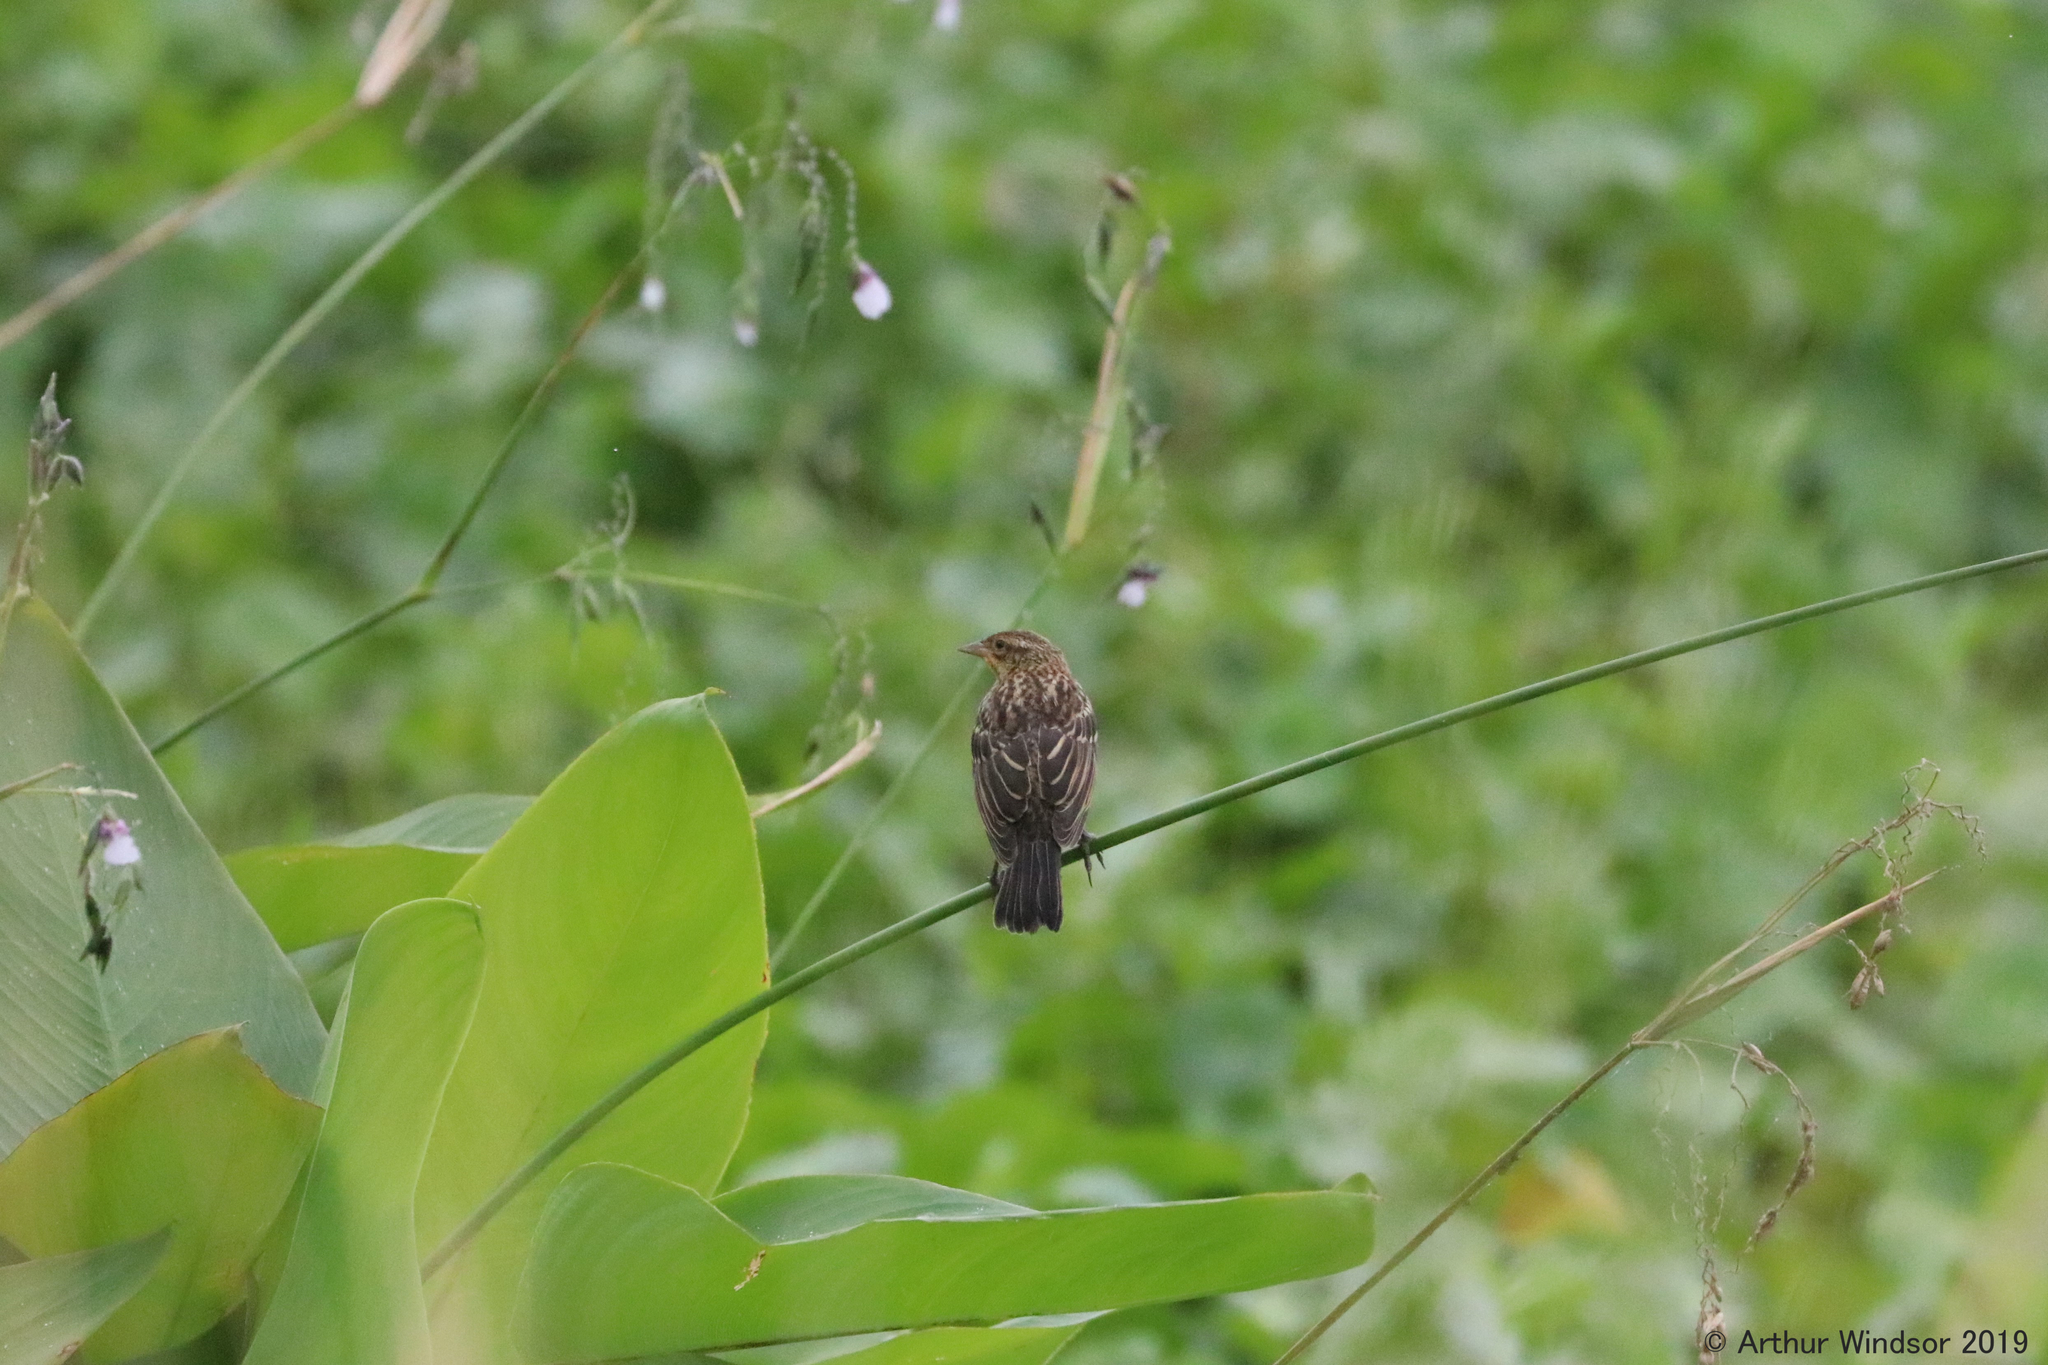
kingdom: Animalia
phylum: Chordata
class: Aves
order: Passeriformes
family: Icteridae
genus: Agelaius
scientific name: Agelaius phoeniceus
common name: Red-winged blackbird
